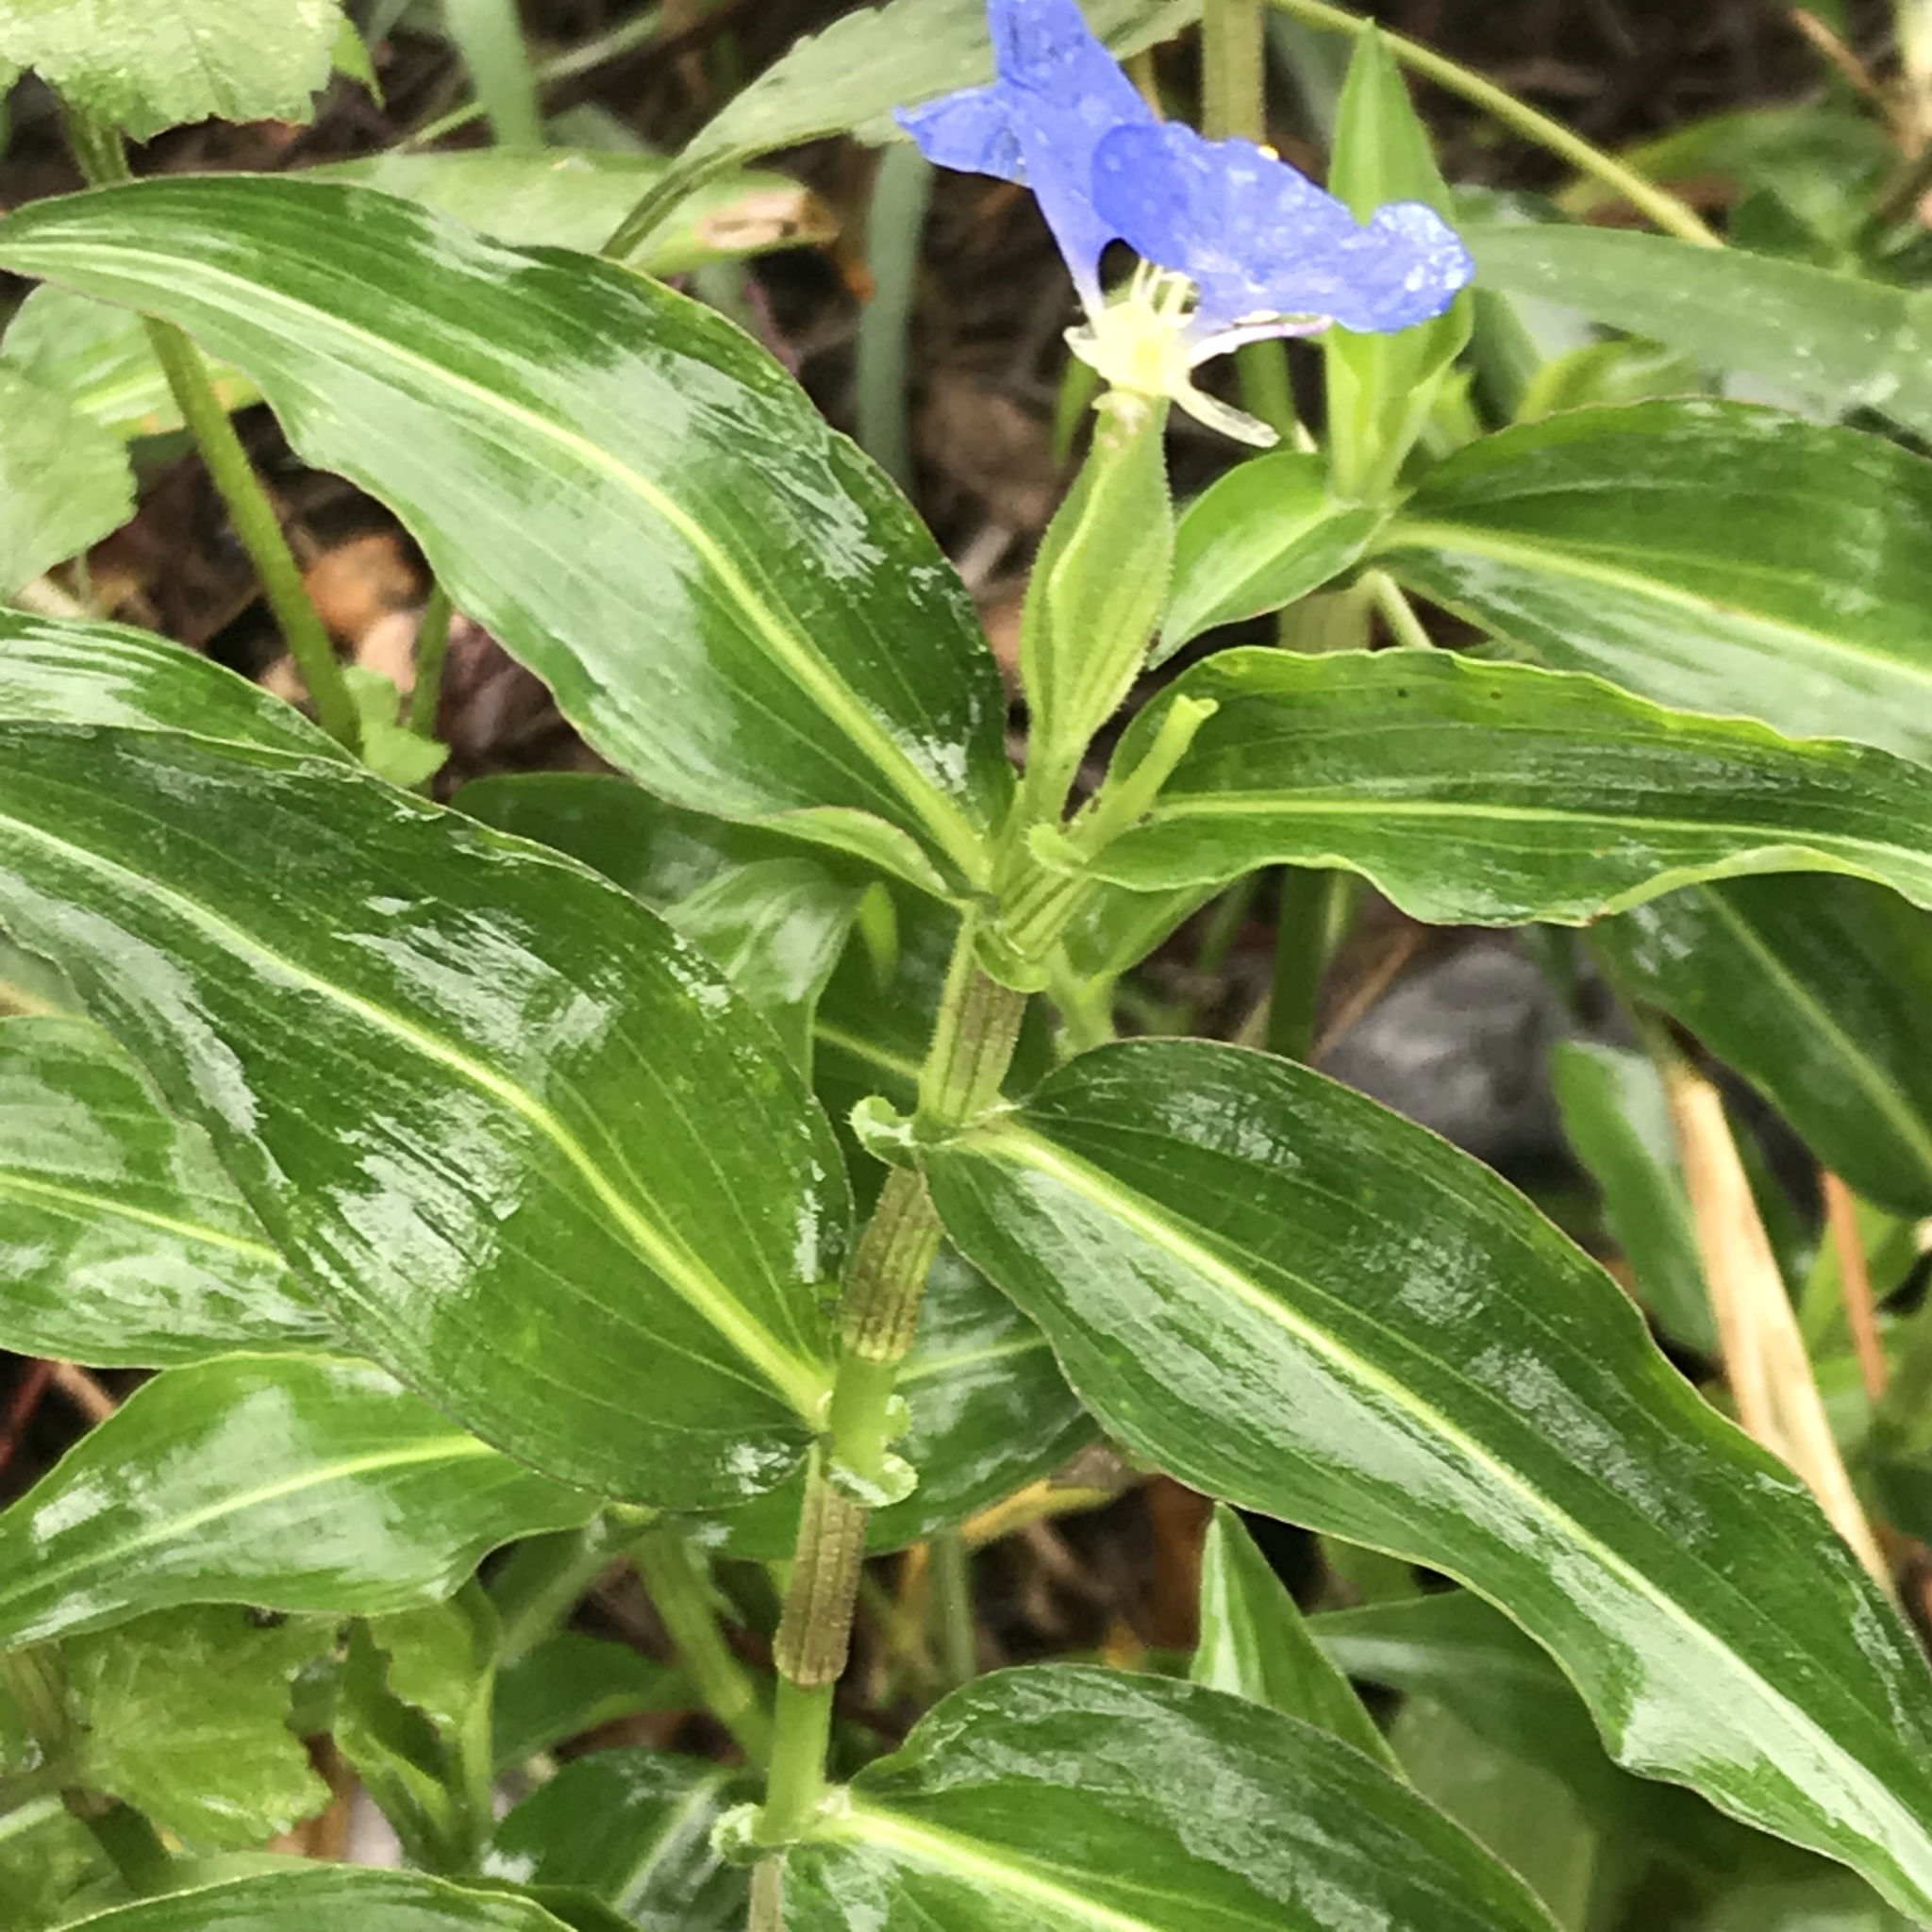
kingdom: Plantae
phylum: Tracheophyta
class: Liliopsida
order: Commelinales
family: Commelinaceae
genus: Commelina
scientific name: Commelina erecta
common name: Blousel blommetjie
